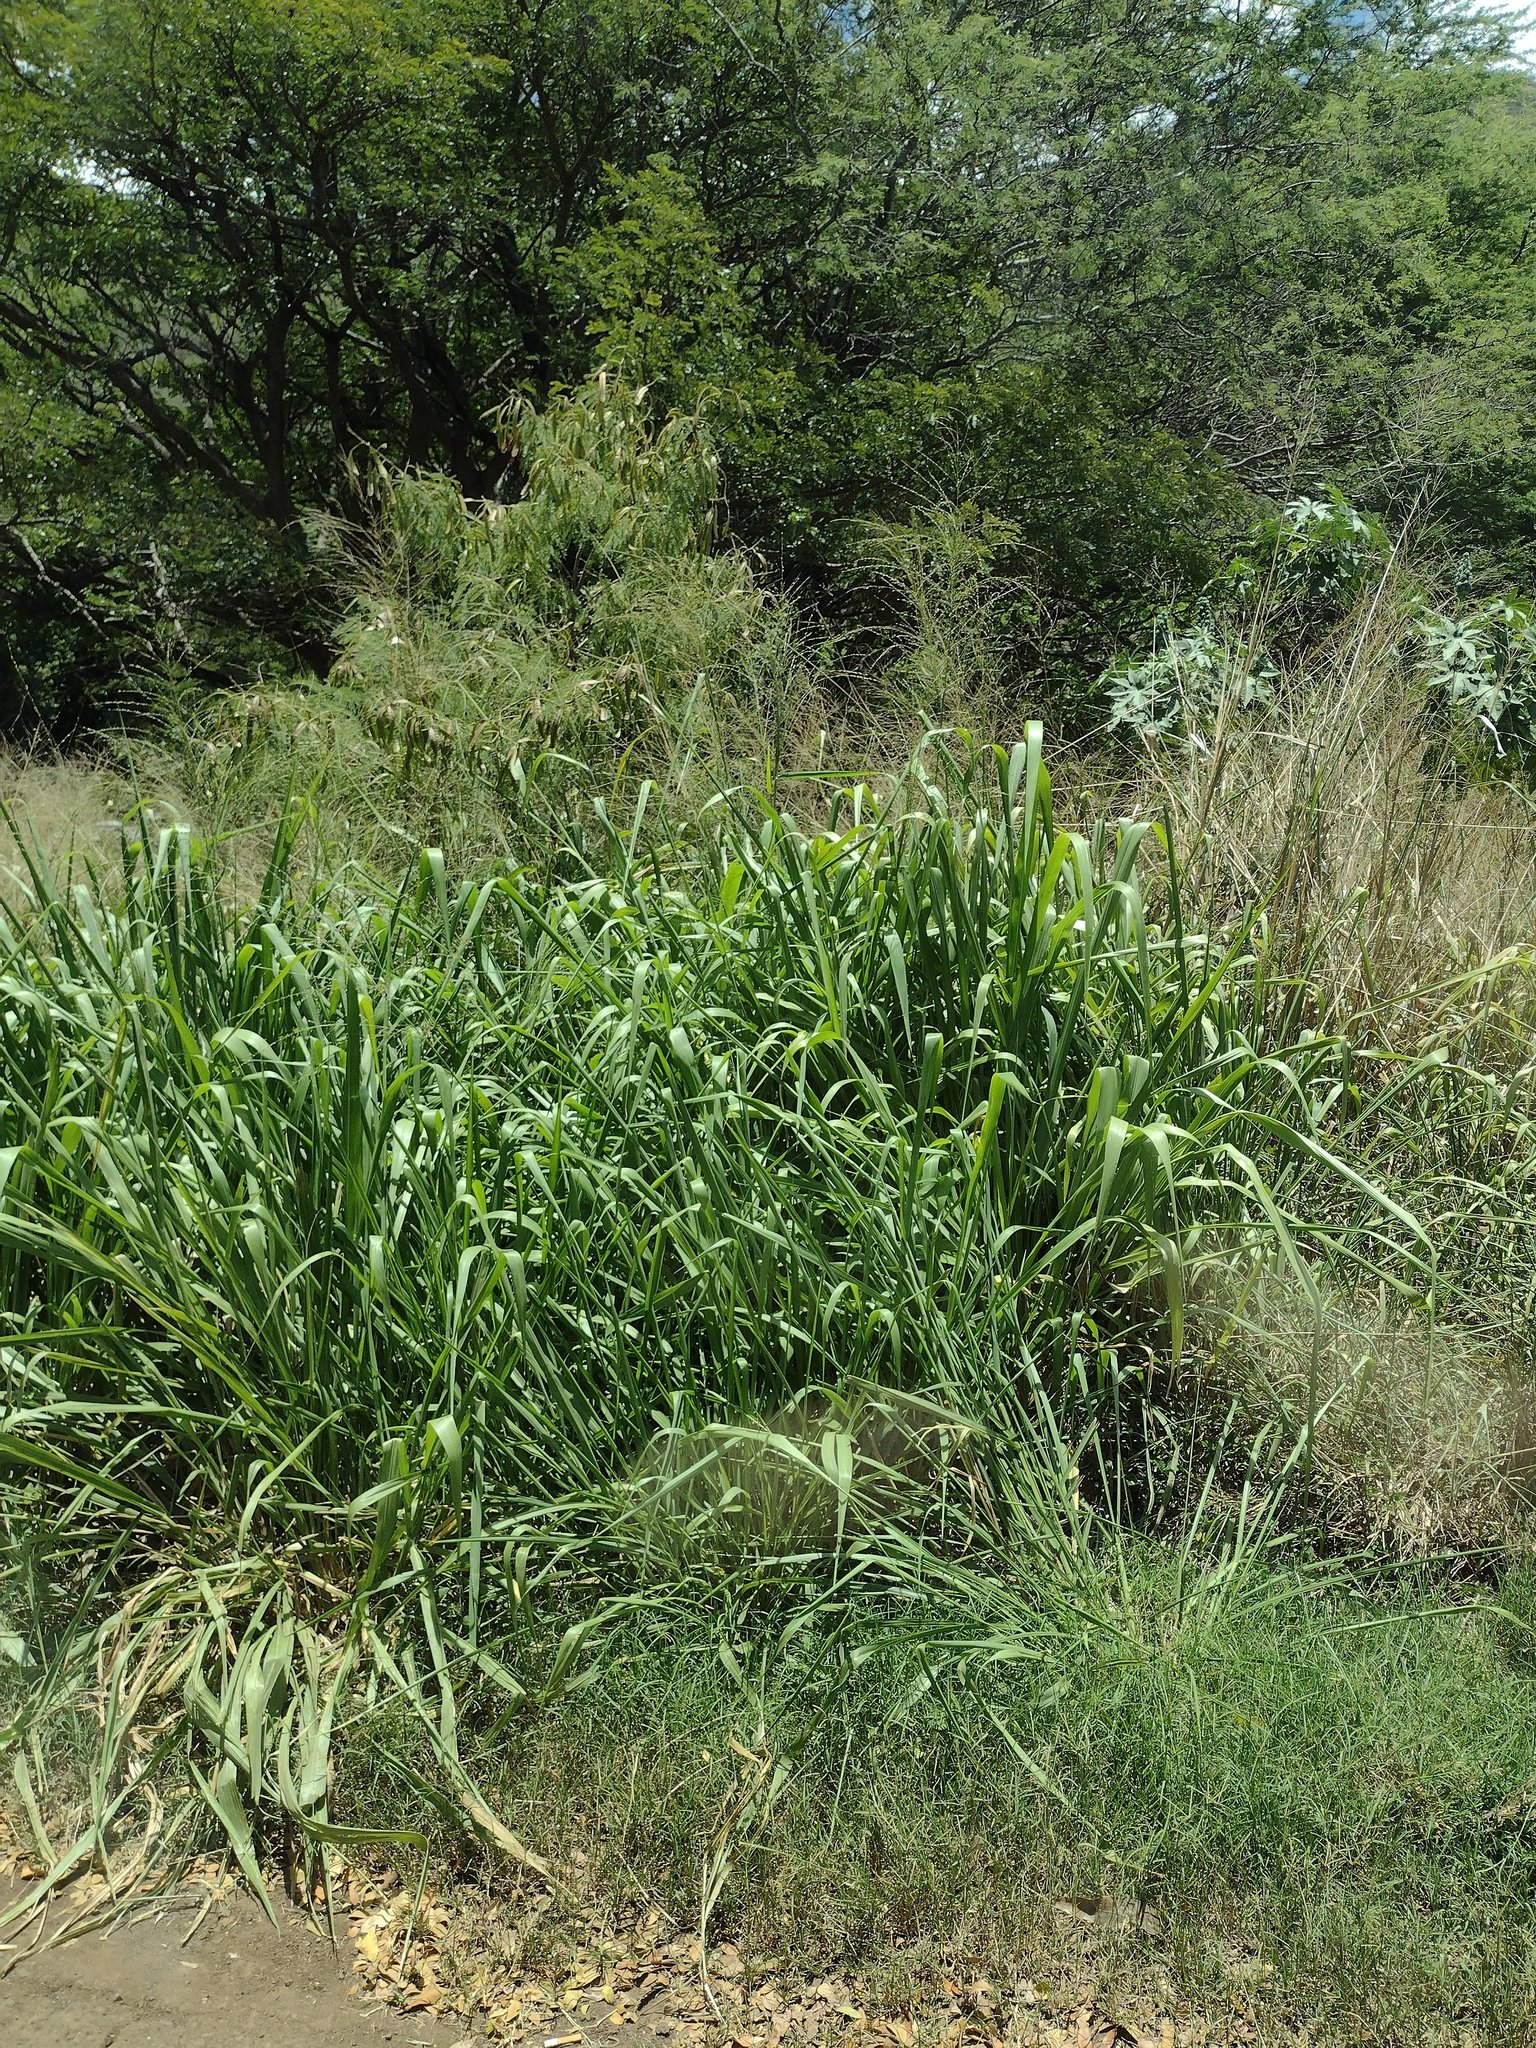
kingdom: Plantae
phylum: Tracheophyta
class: Liliopsida
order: Poales
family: Poaceae
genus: Megathyrsus
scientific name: Megathyrsus maximus
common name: Guineagrass
